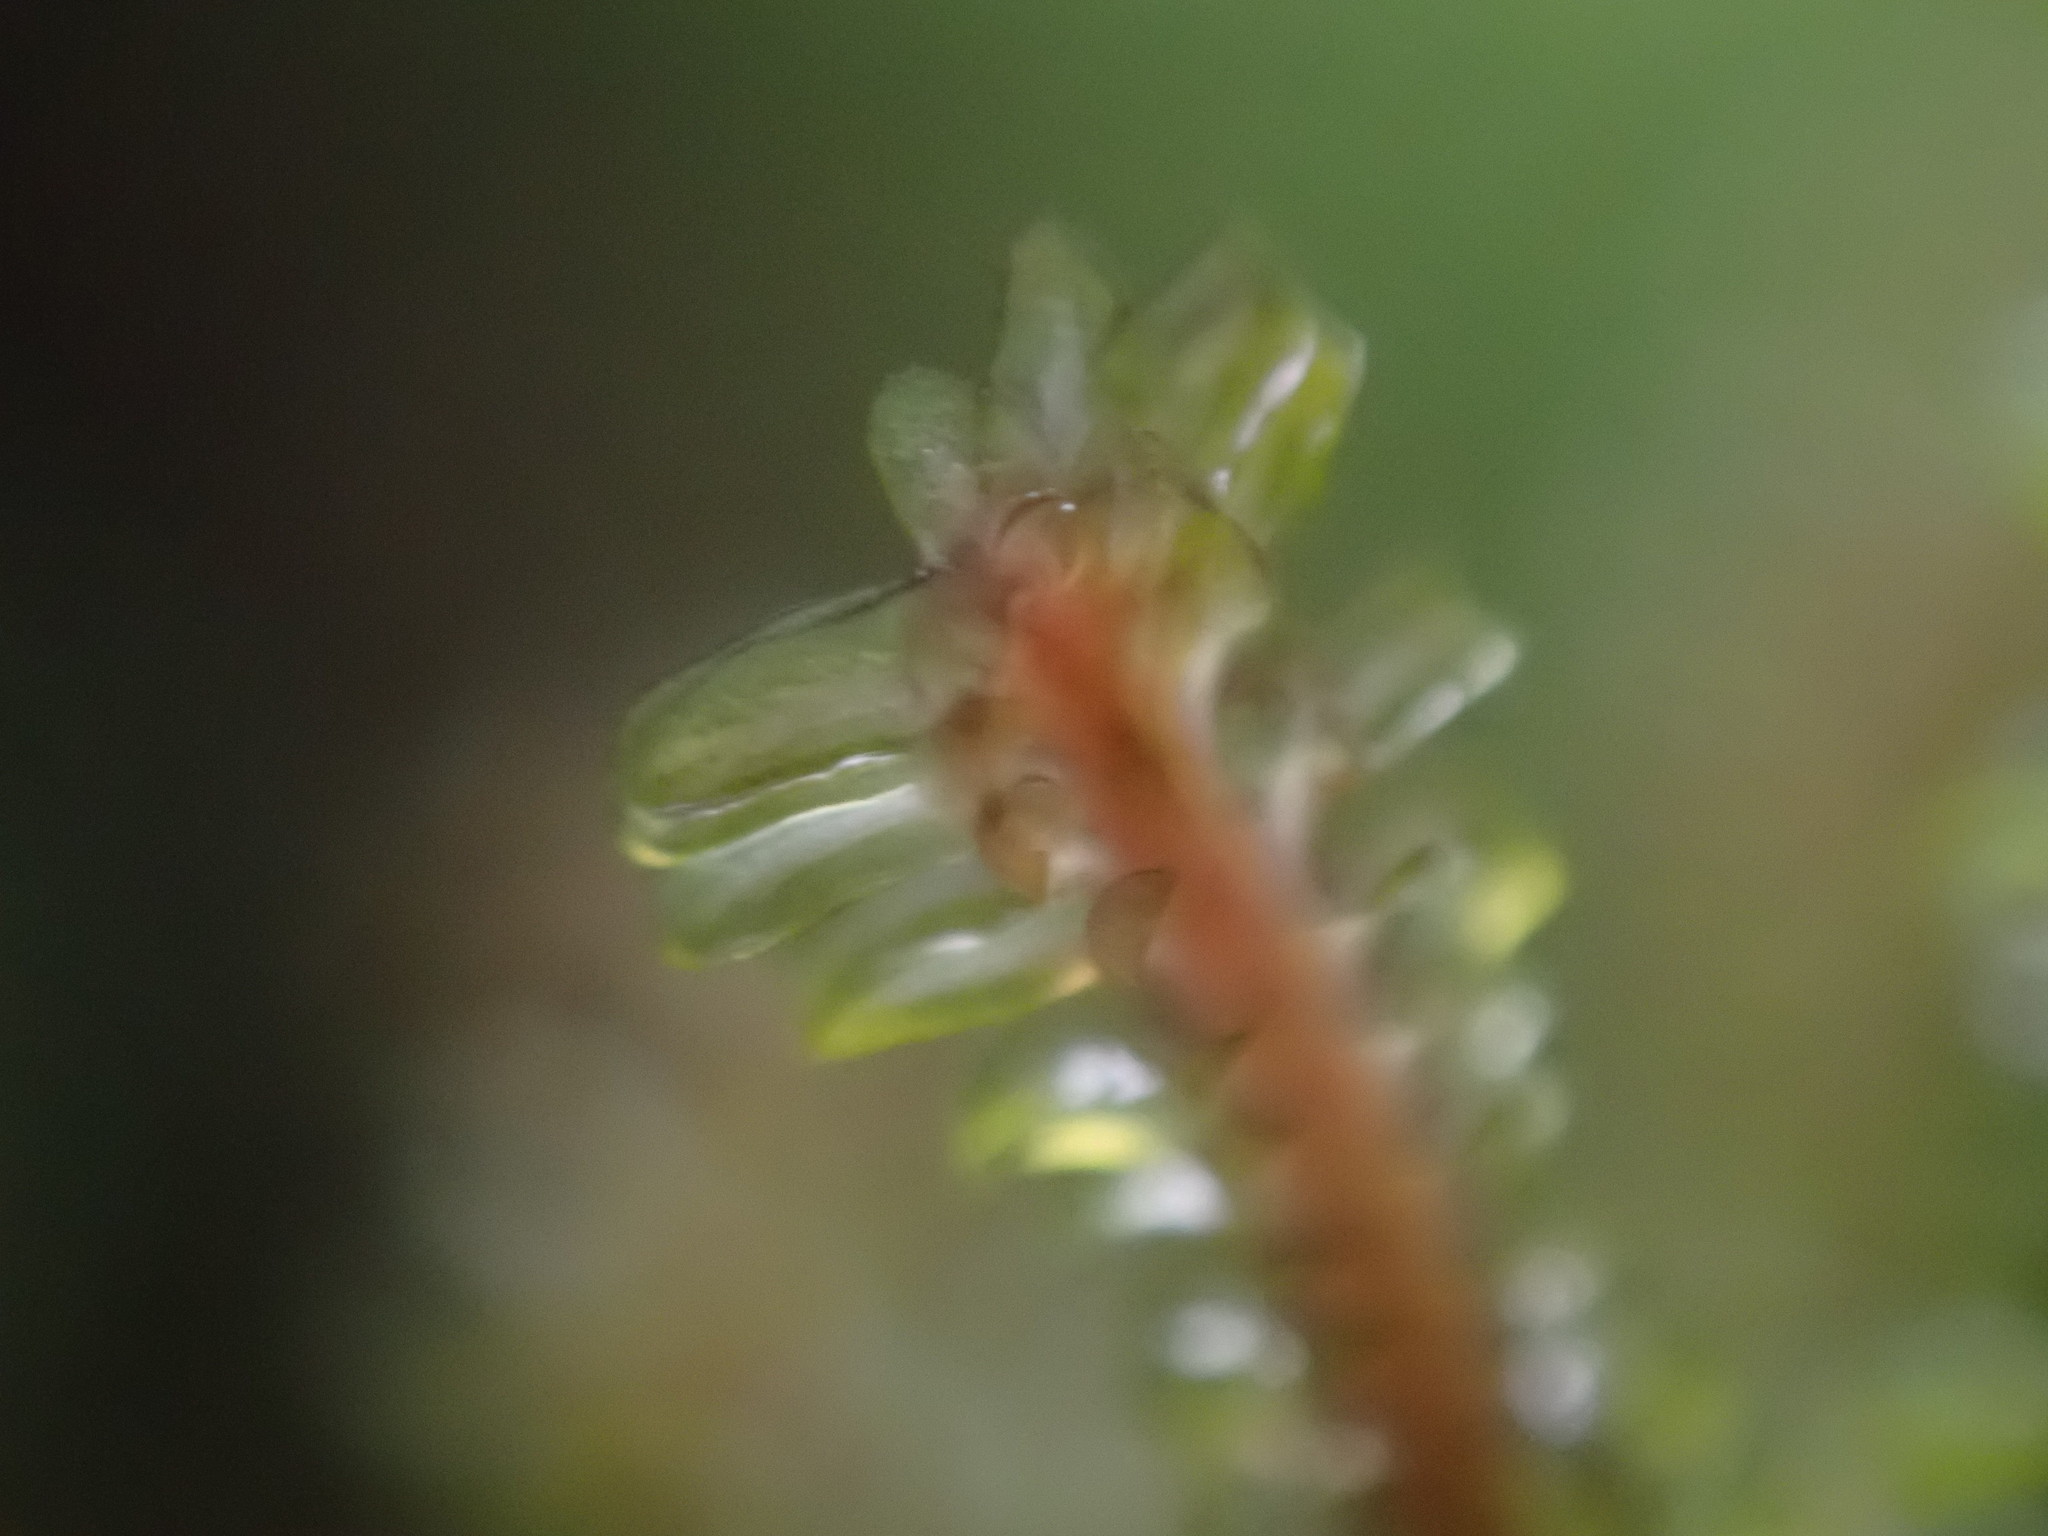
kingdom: Plantae
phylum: Marchantiophyta
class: Jungermanniopsida
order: Jungermanniales
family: Scapaniaceae
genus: Diplophyllum
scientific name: Diplophyllum albicans
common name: White earwort
